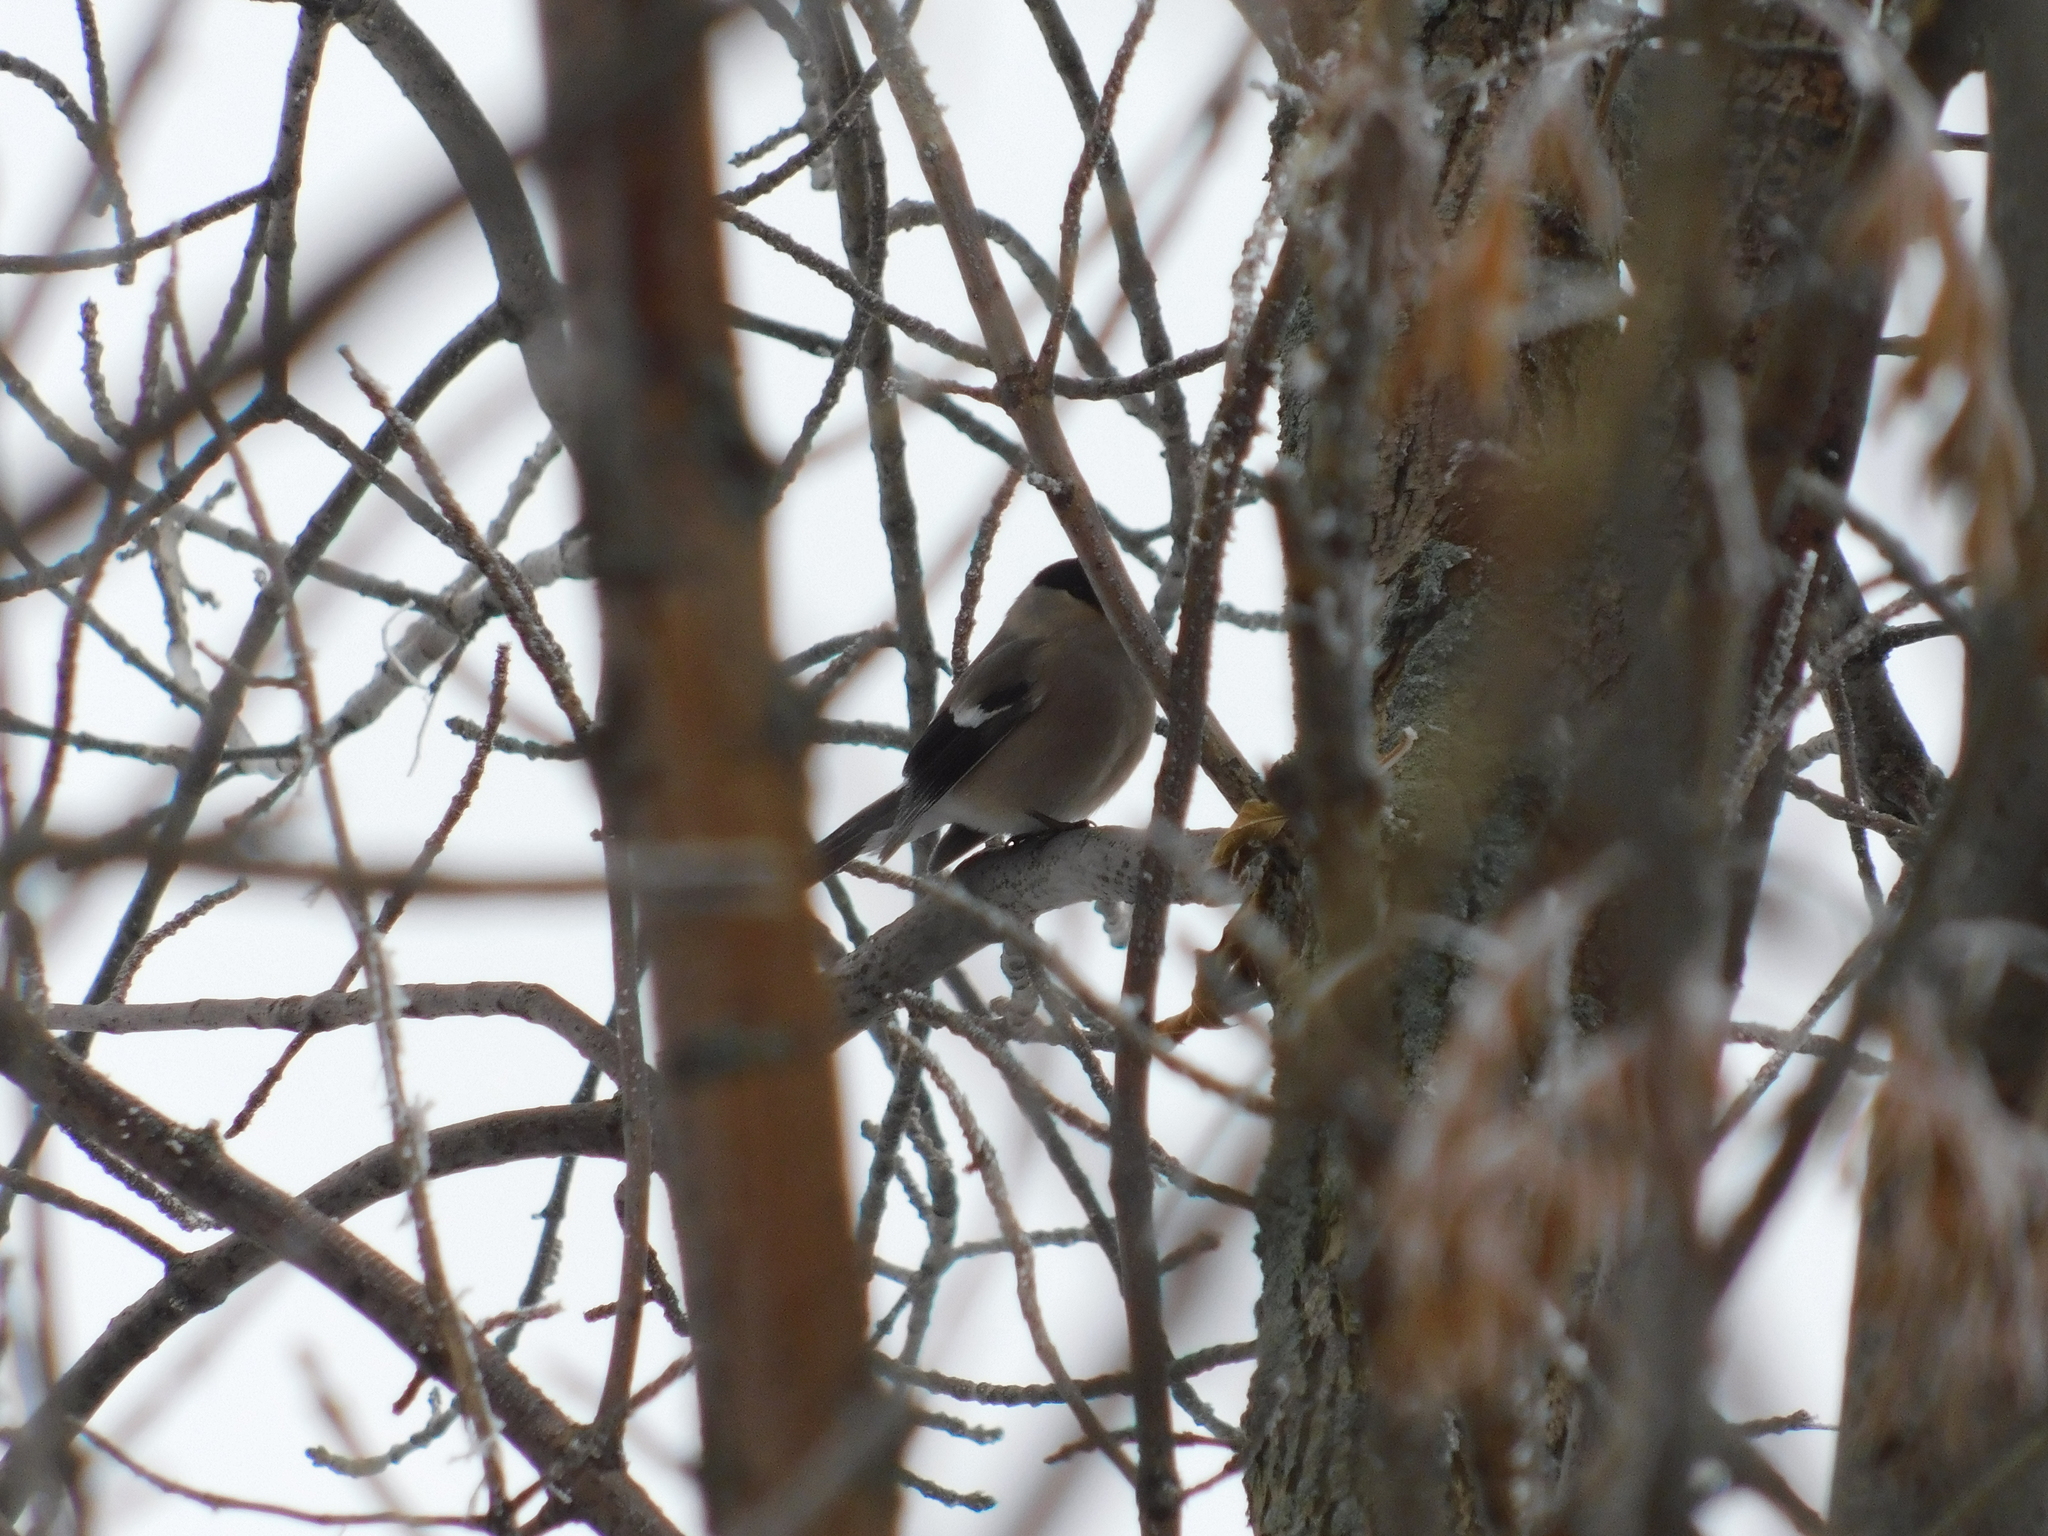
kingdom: Animalia
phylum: Chordata
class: Aves
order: Passeriformes
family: Fringillidae
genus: Pyrrhula
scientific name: Pyrrhula pyrrhula
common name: Eurasian bullfinch
